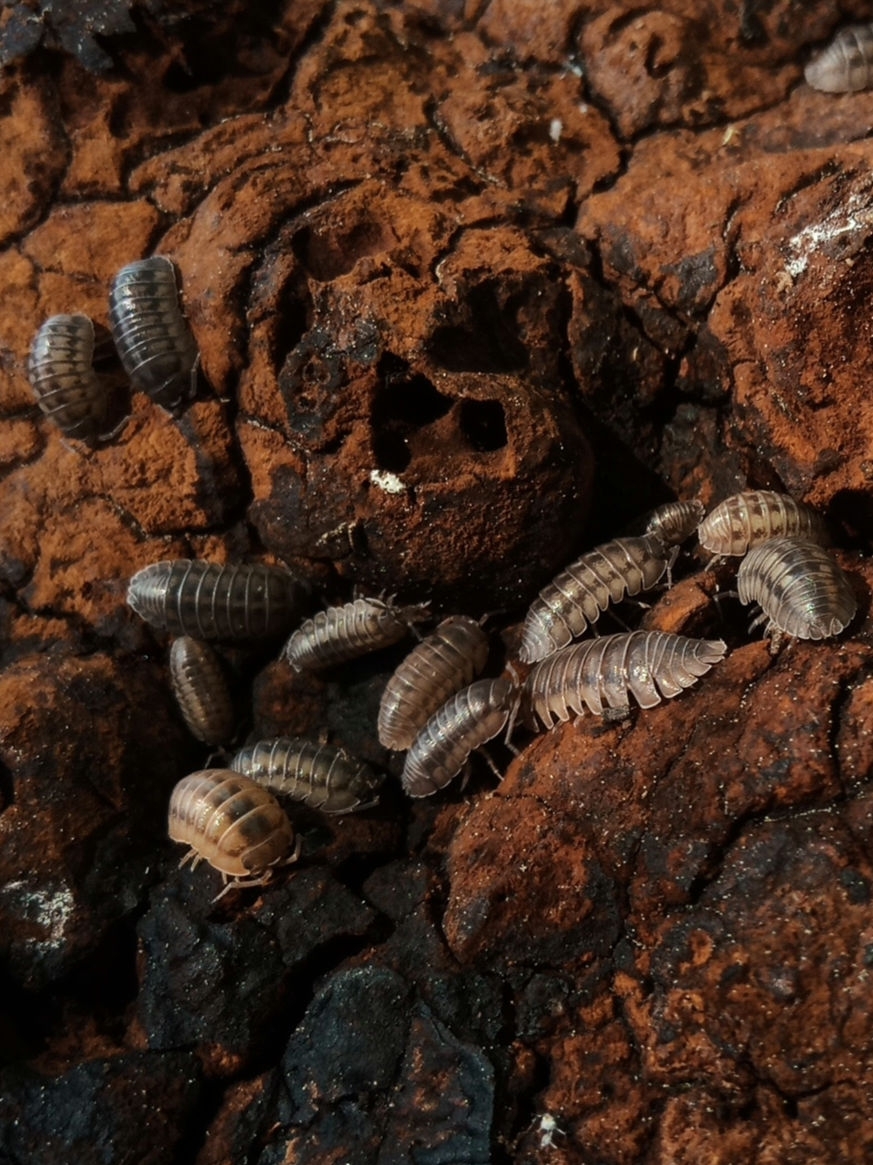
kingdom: Animalia
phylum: Arthropoda
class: Malacostraca
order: Isopoda
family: Armadillidiidae
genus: Armadillidium
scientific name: Armadillidium nasatum
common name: Isopod
